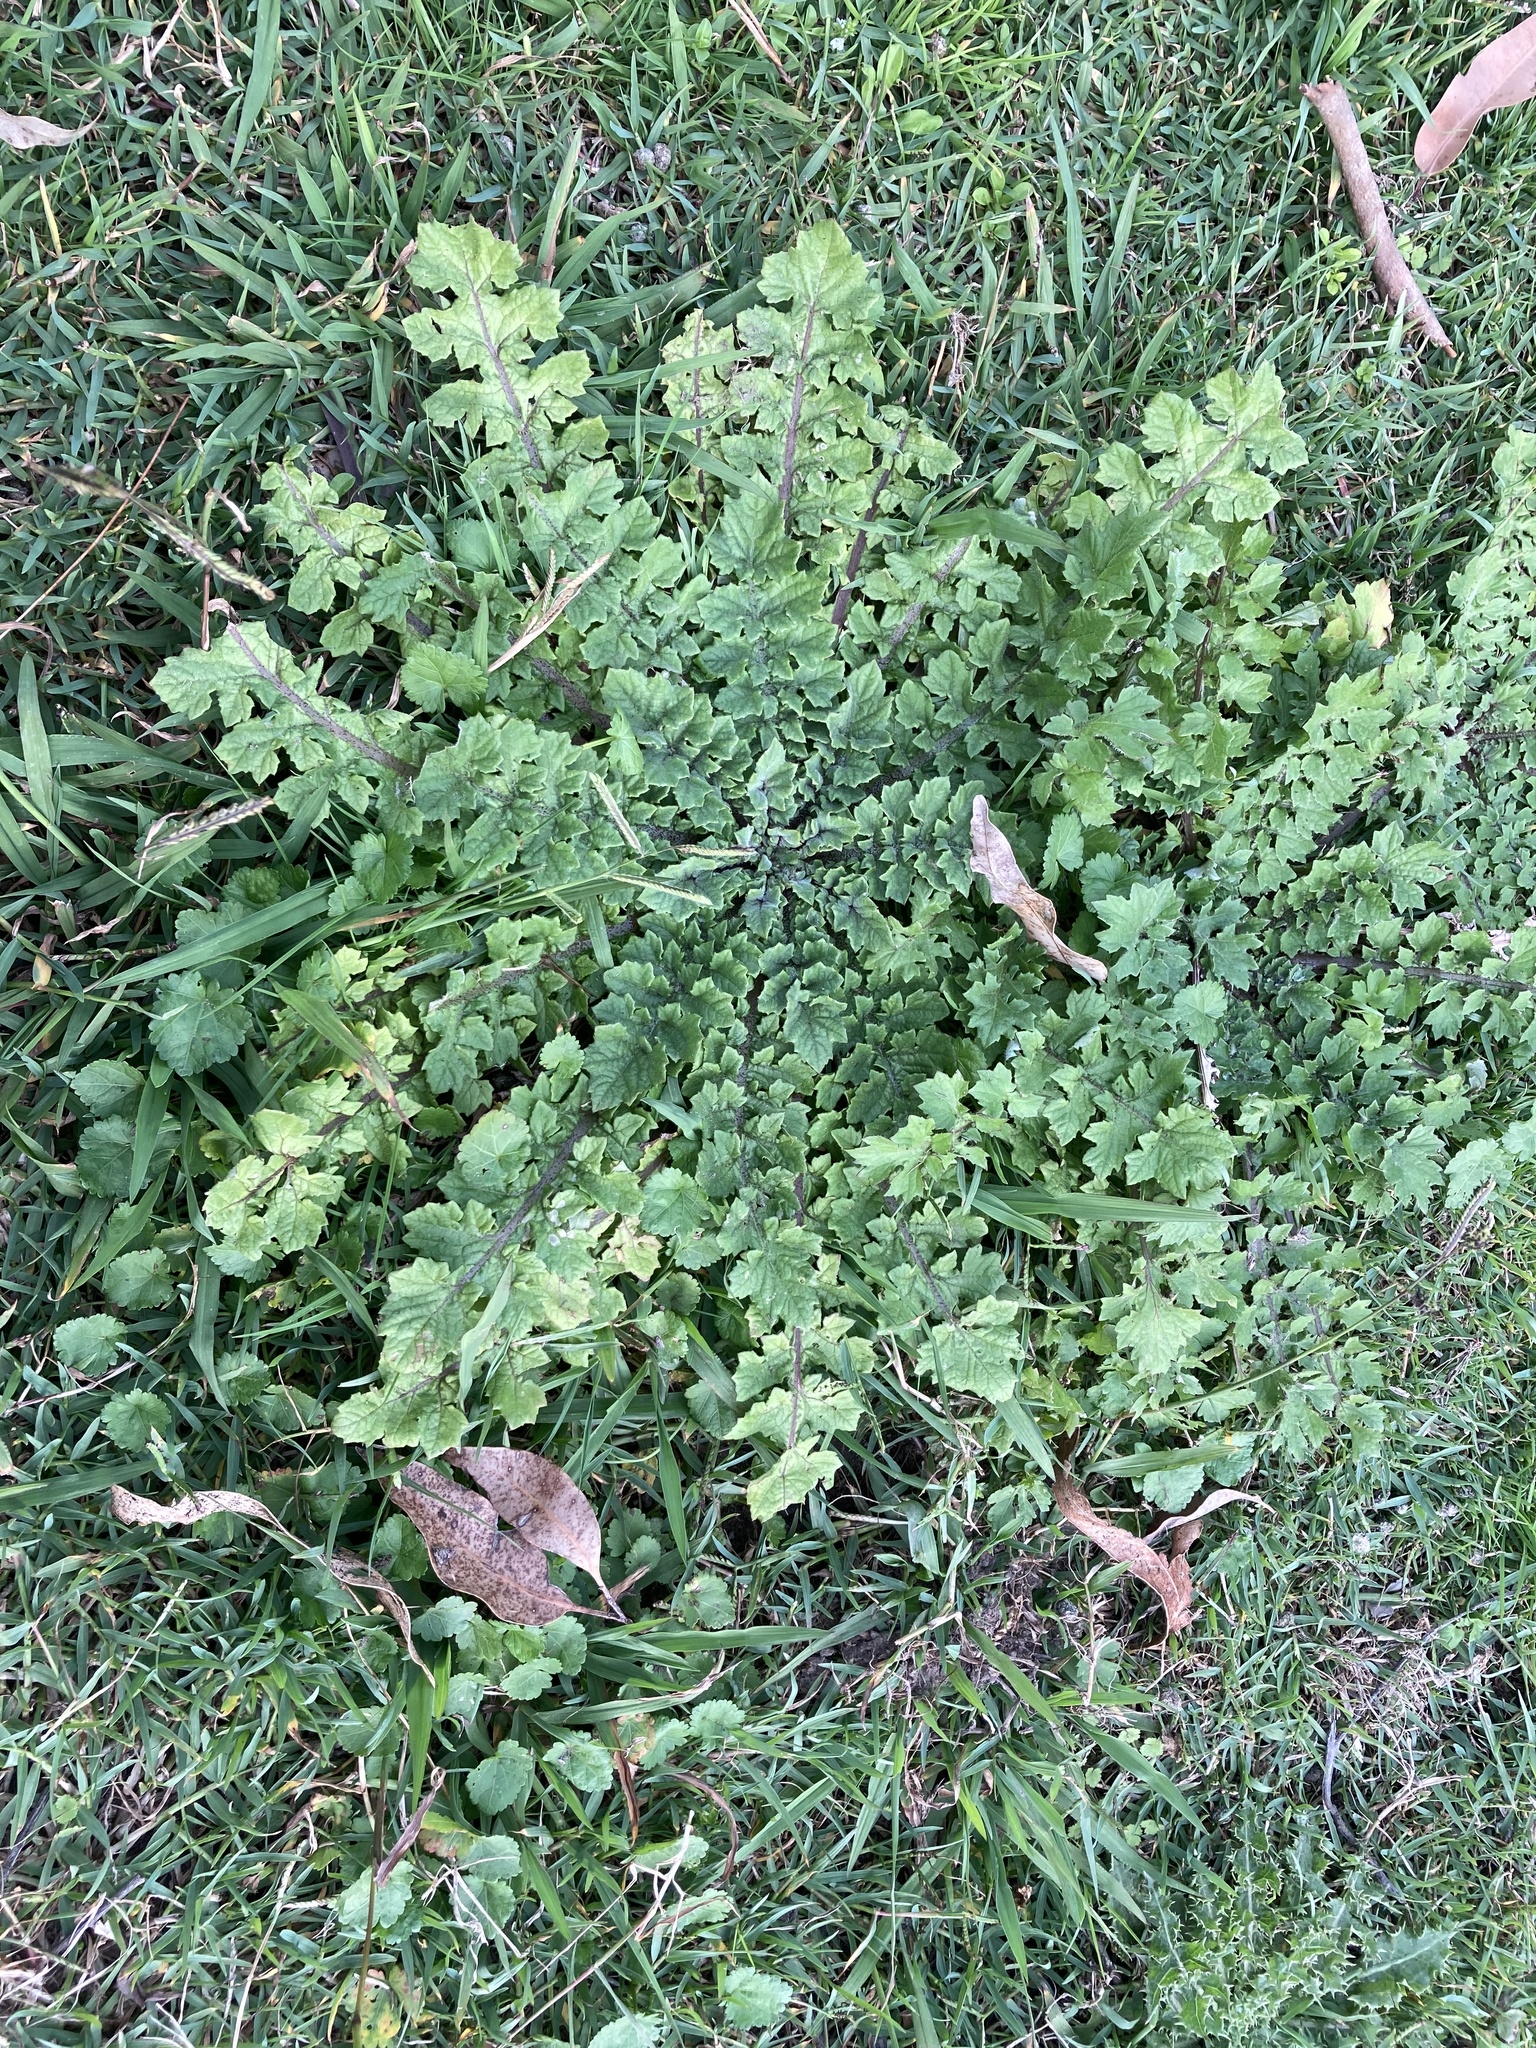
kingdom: Plantae
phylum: Tracheophyta
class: Magnoliopsida
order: Asterales
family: Asteraceae
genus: Arctotheca
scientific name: Arctotheca calendula
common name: Capeweed
